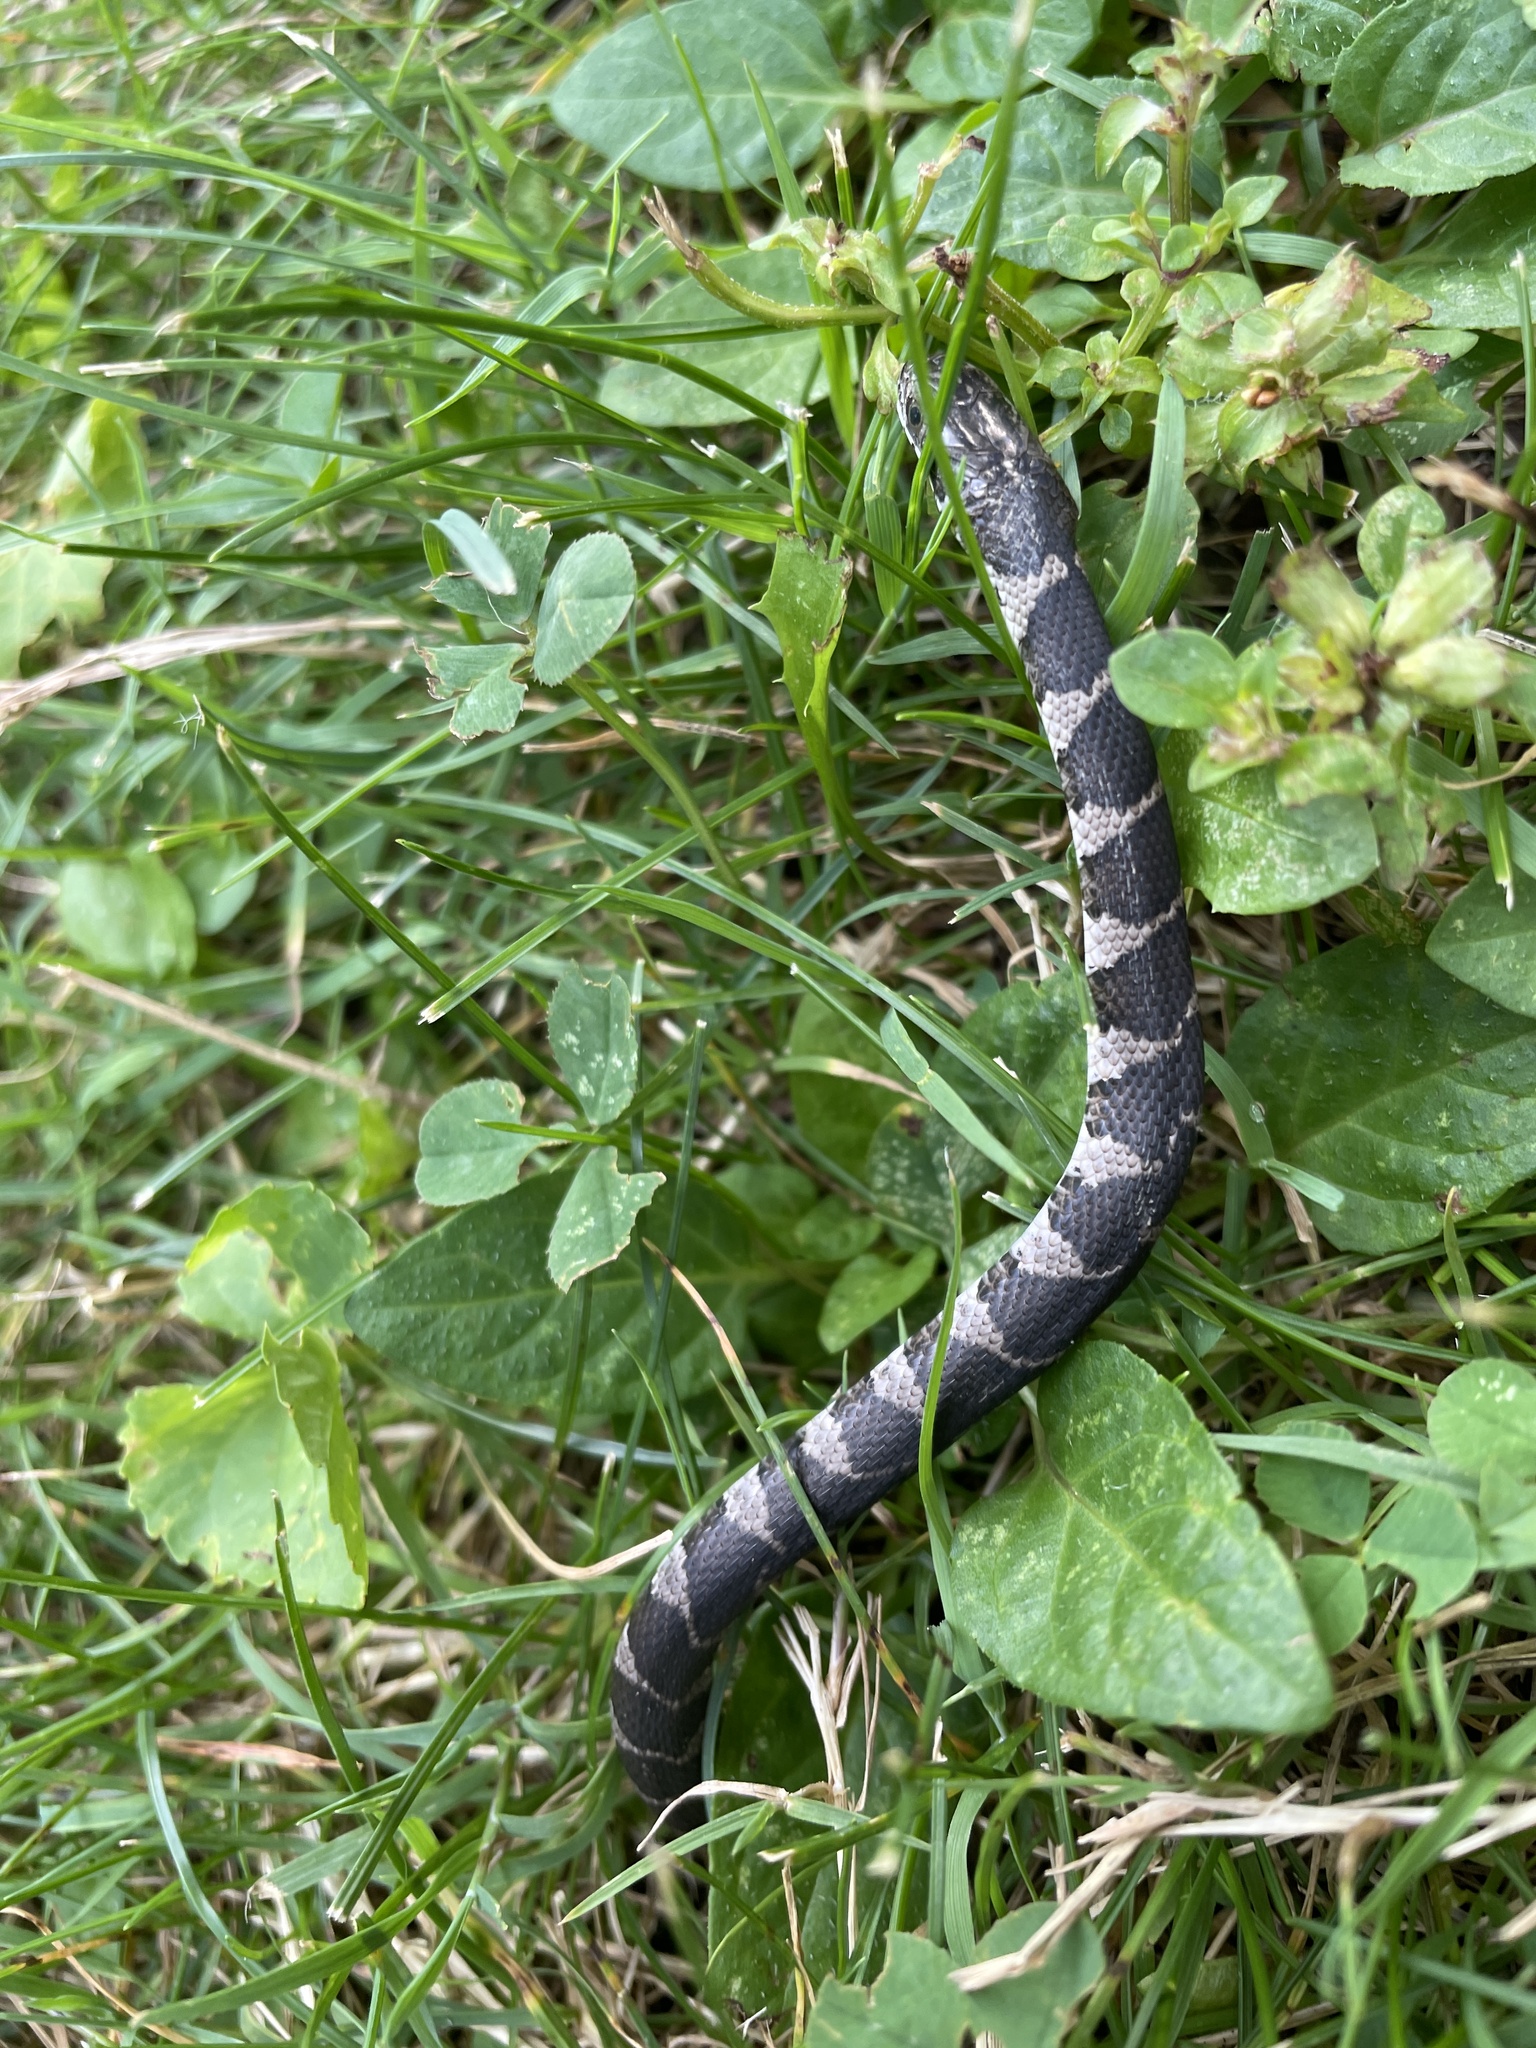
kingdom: Animalia
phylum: Chordata
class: Squamata
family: Colubridae
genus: Nerodia
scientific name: Nerodia sipedon
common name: Northern water snake
